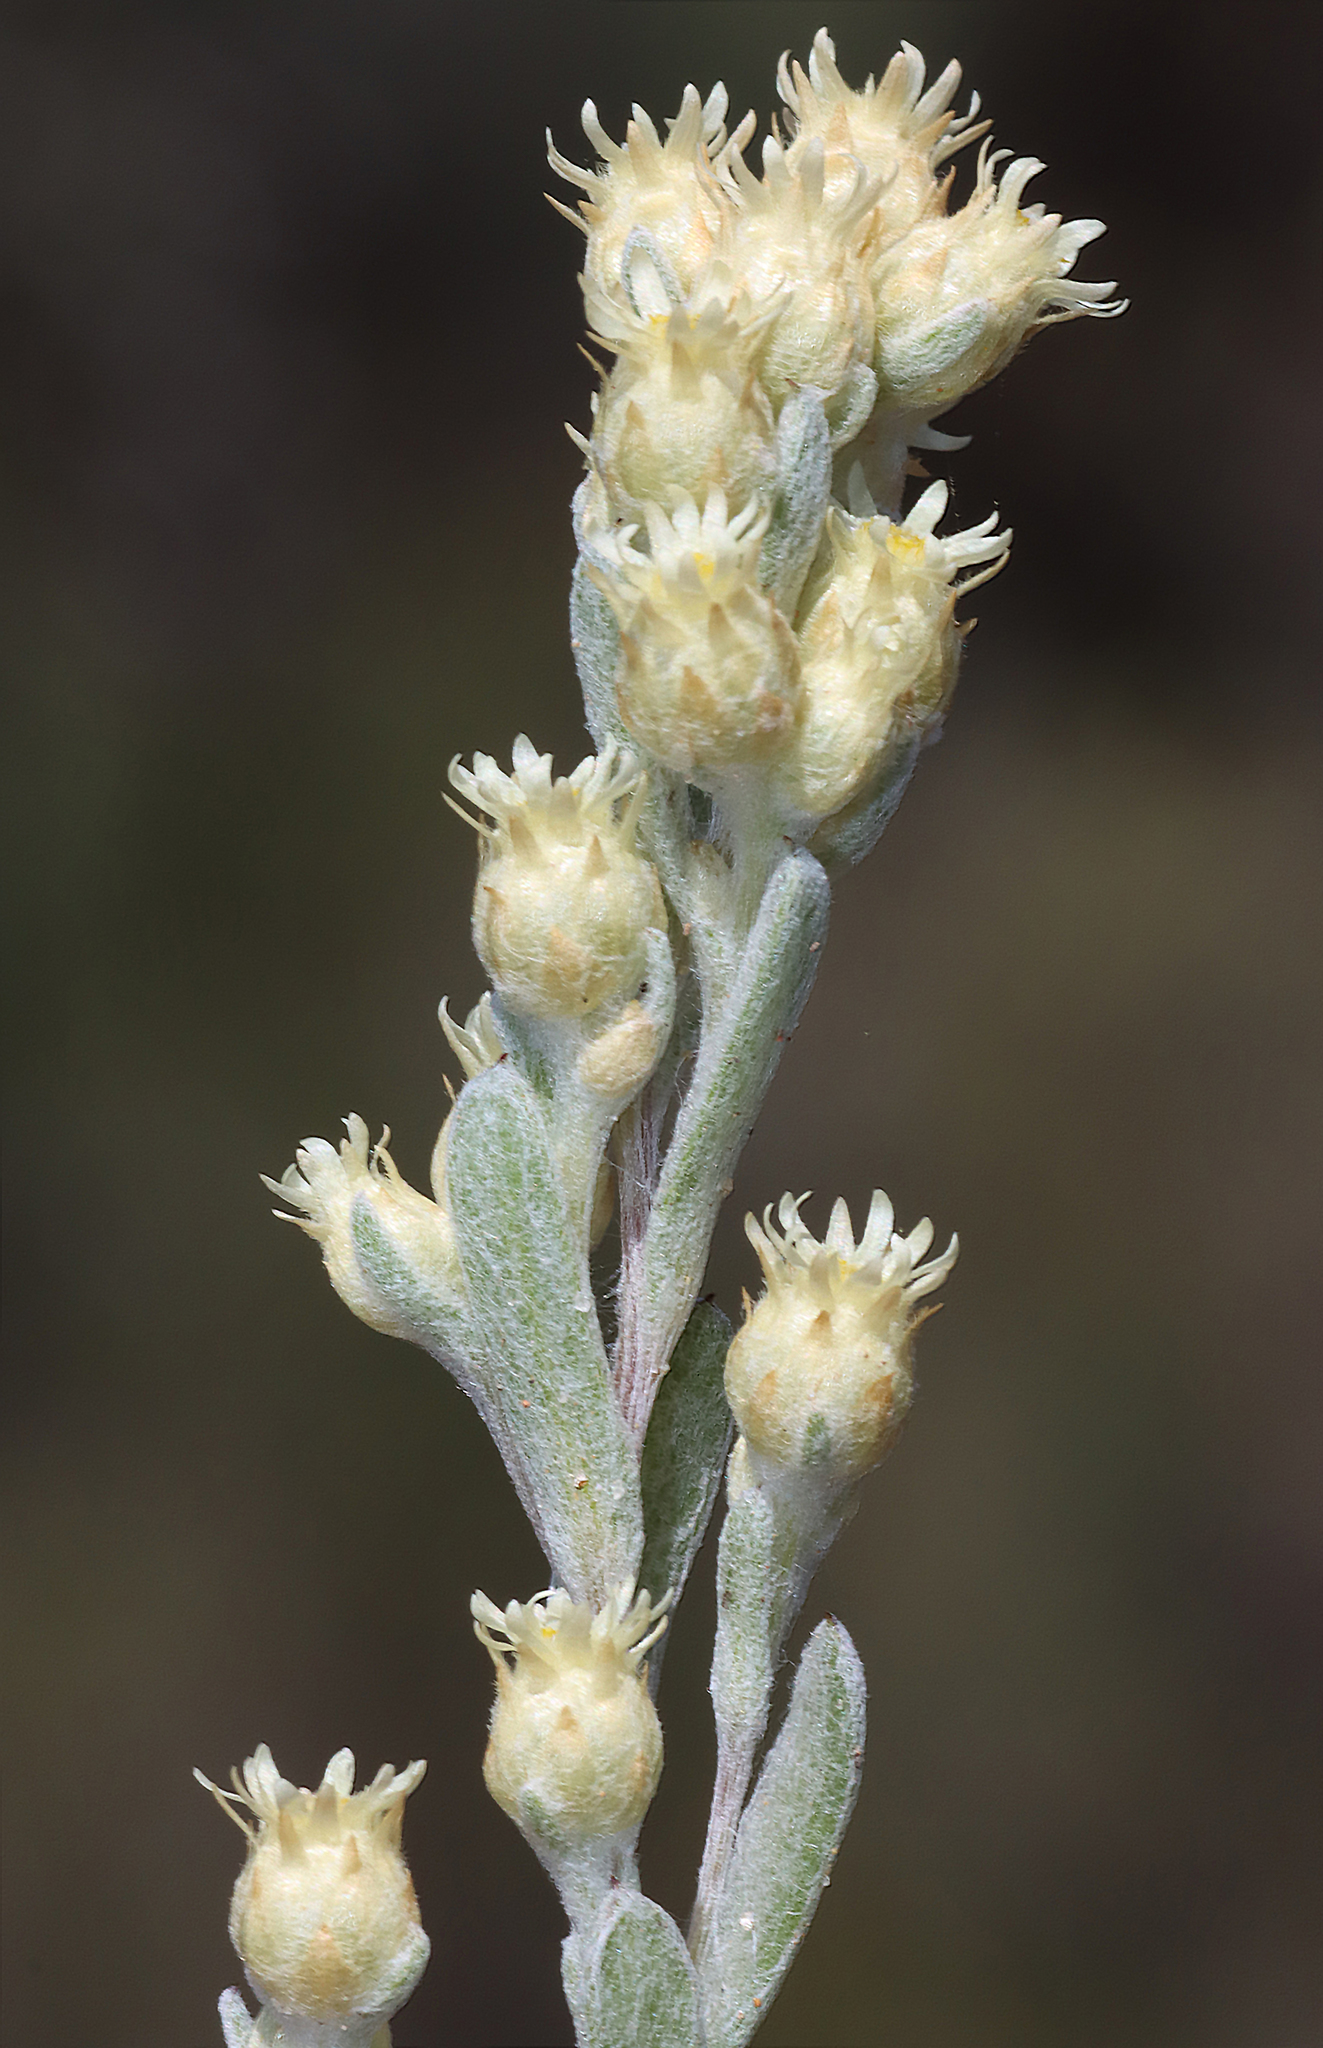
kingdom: Plantae
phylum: Tracheophyta
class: Magnoliopsida
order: Asterales
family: Asteraceae
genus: Pterochaeta
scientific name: Pterochaeta paniculata
